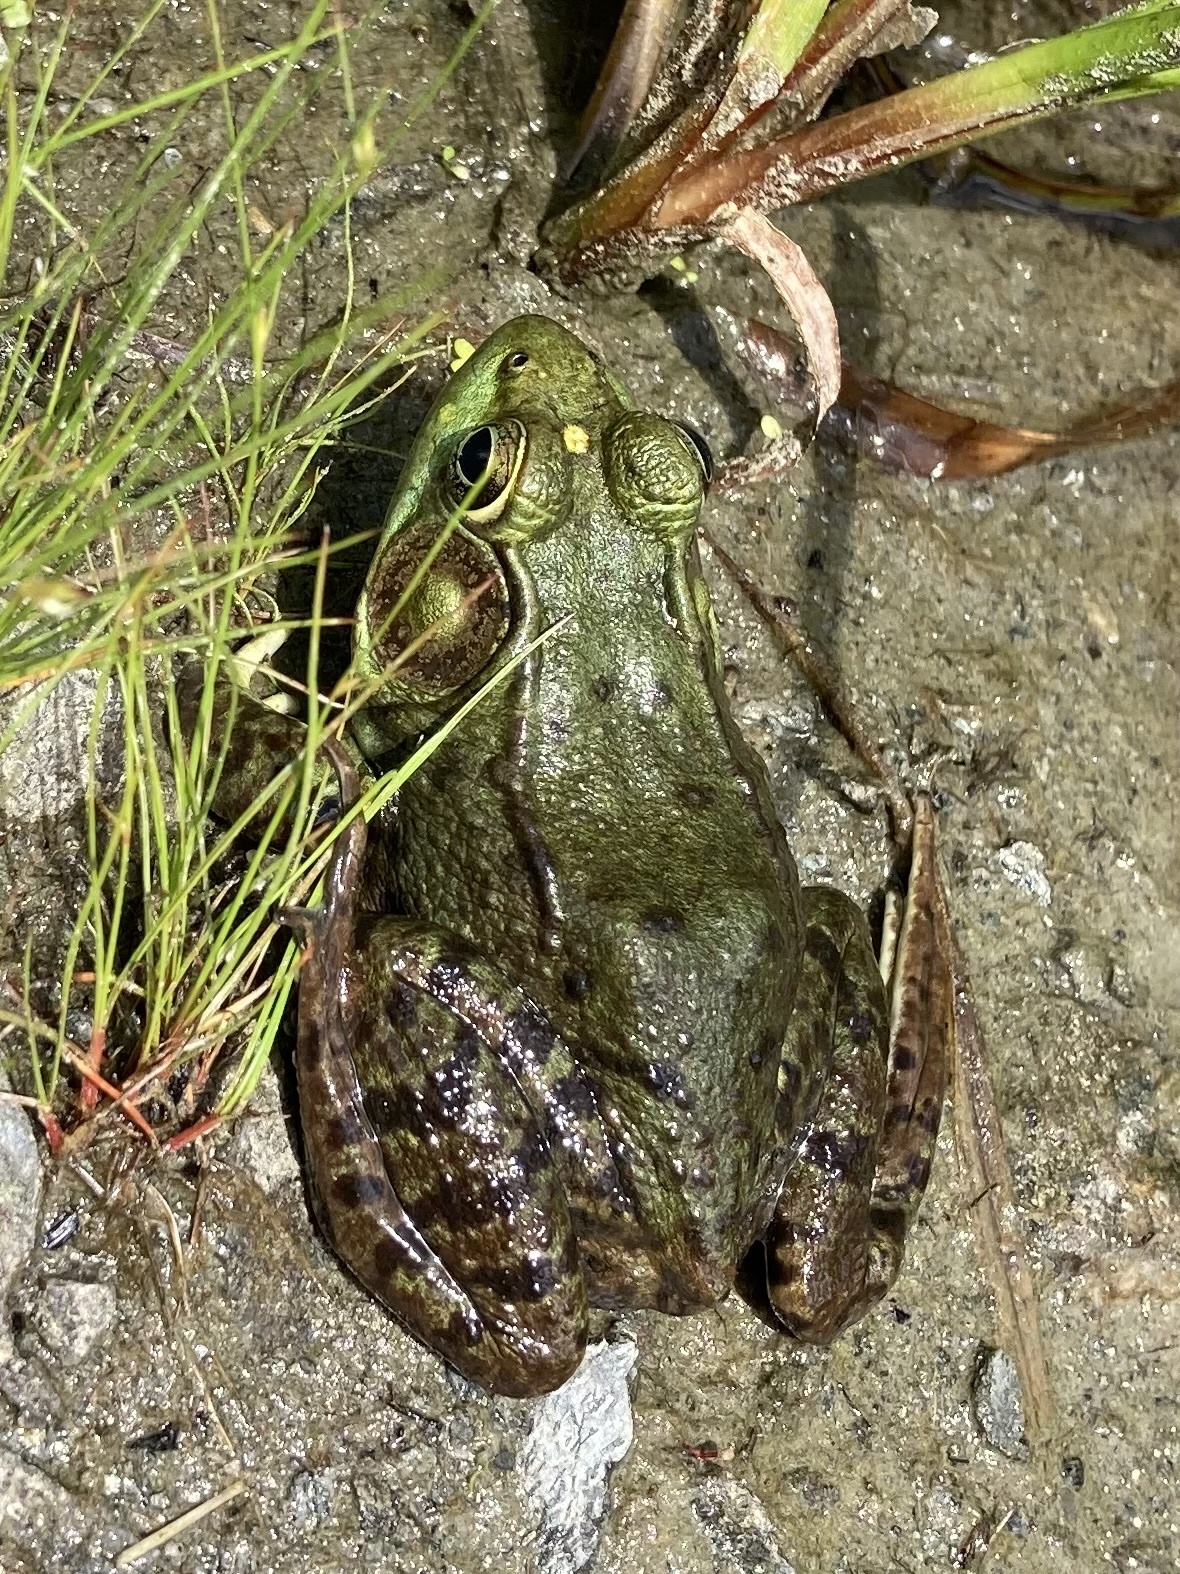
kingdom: Animalia
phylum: Chordata
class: Amphibia
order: Anura
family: Ranidae
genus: Lithobates
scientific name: Lithobates clamitans
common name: Green frog
